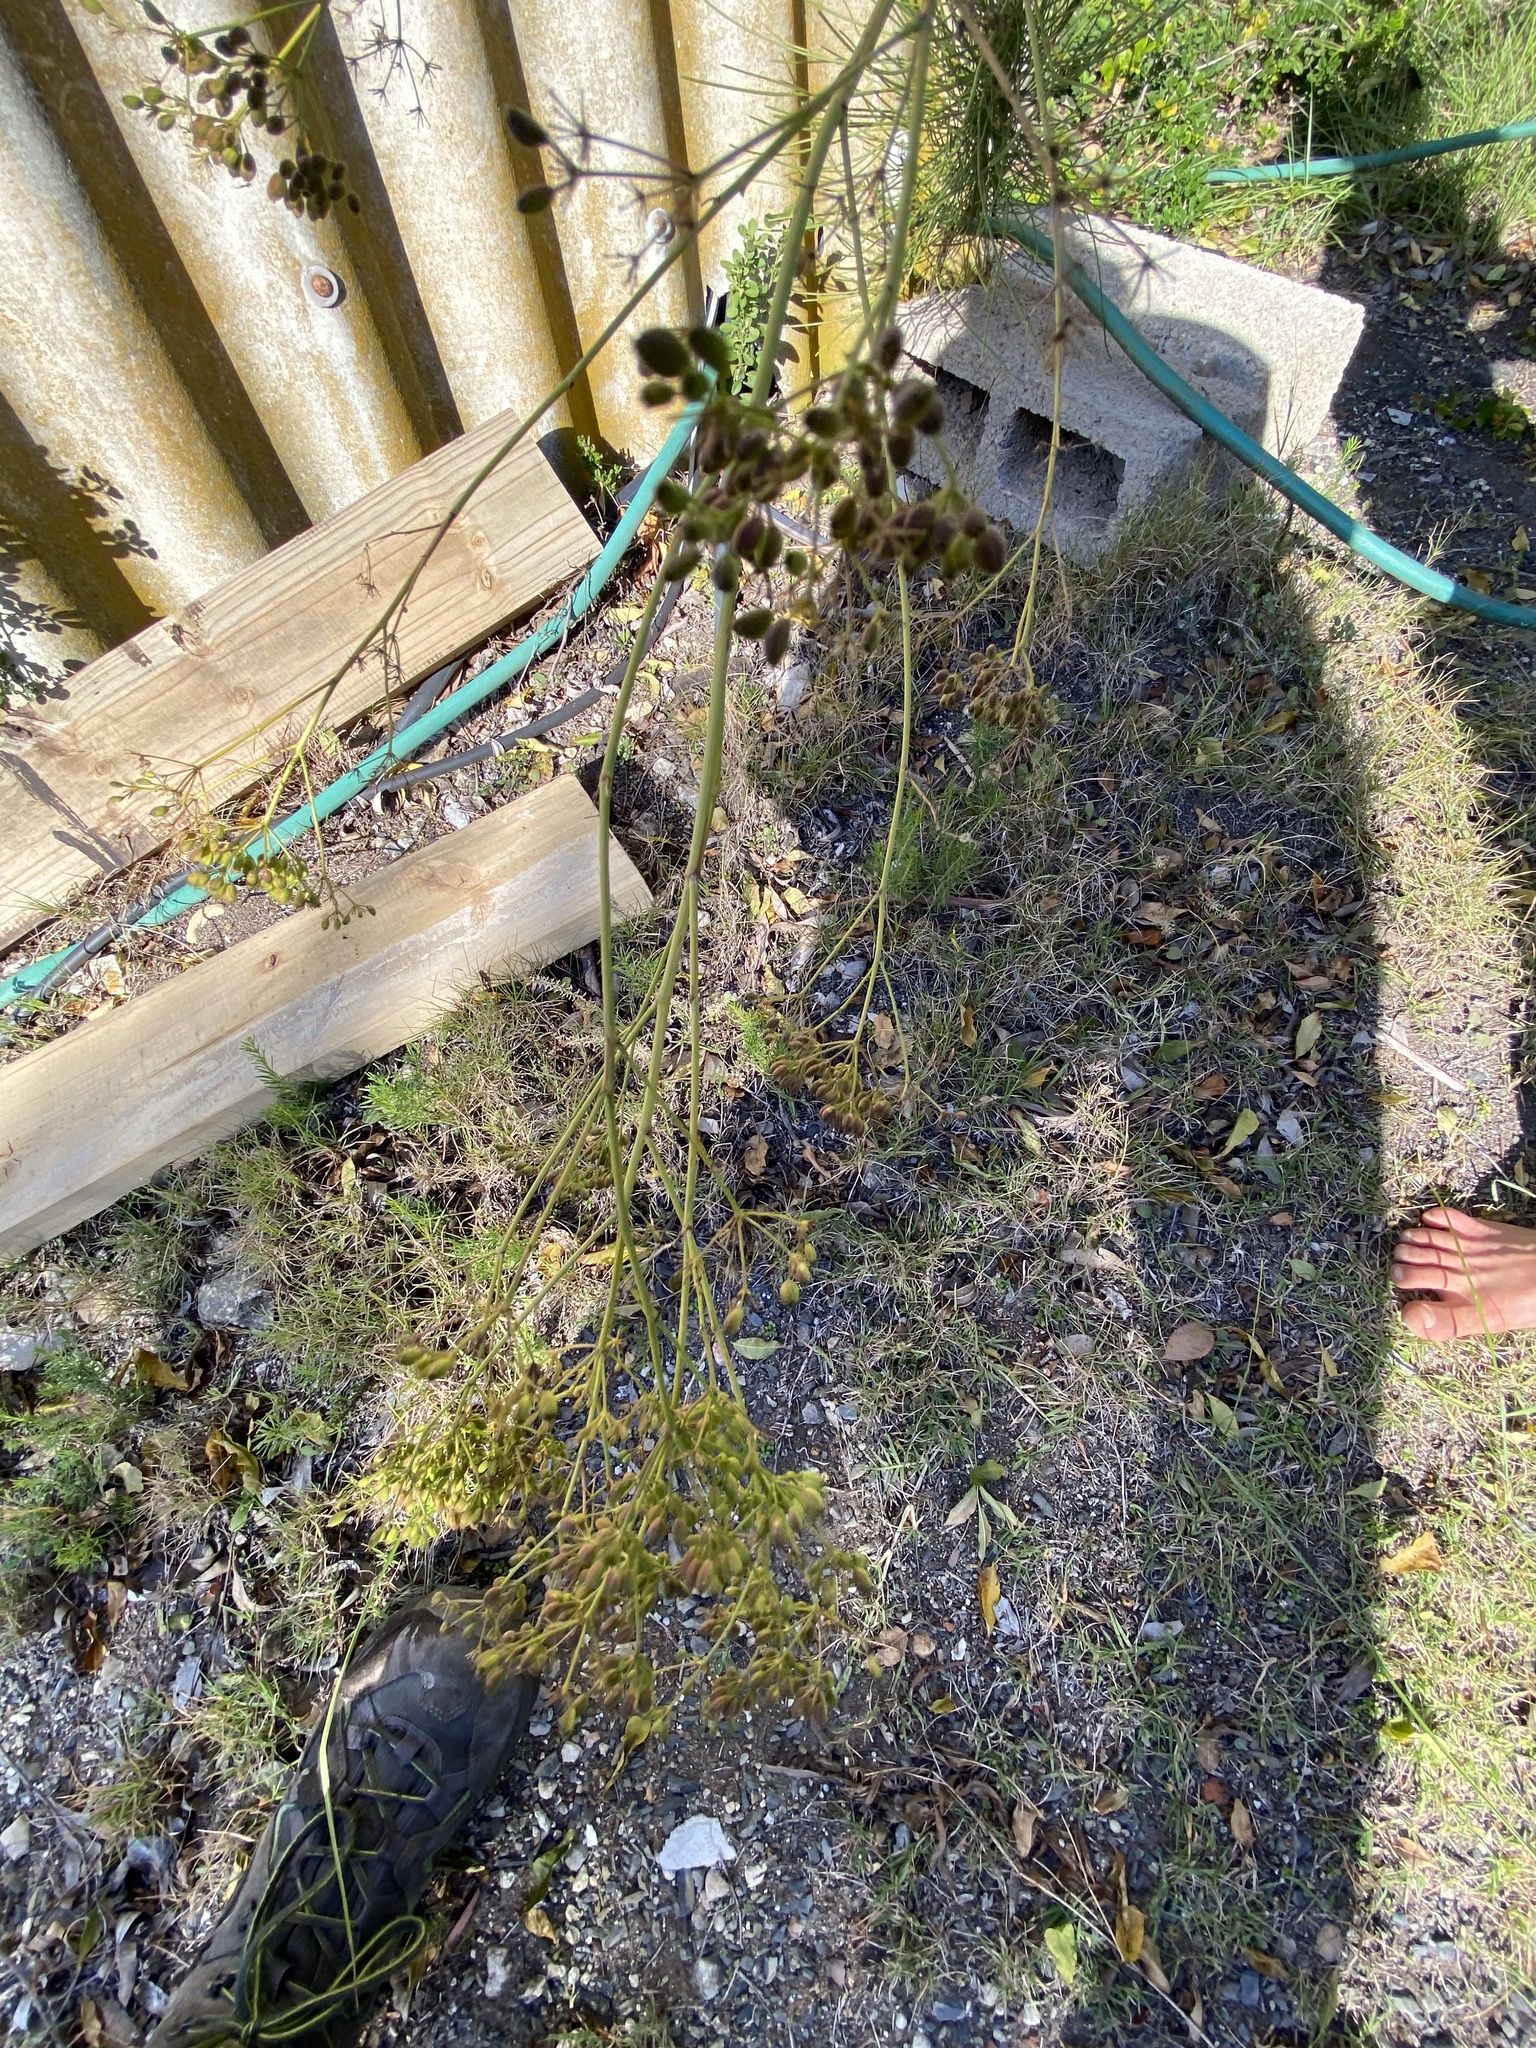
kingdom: Plantae
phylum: Tracheophyta
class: Magnoliopsida
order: Apiales
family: Apiaceae
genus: Anginon
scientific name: Anginon difforme
